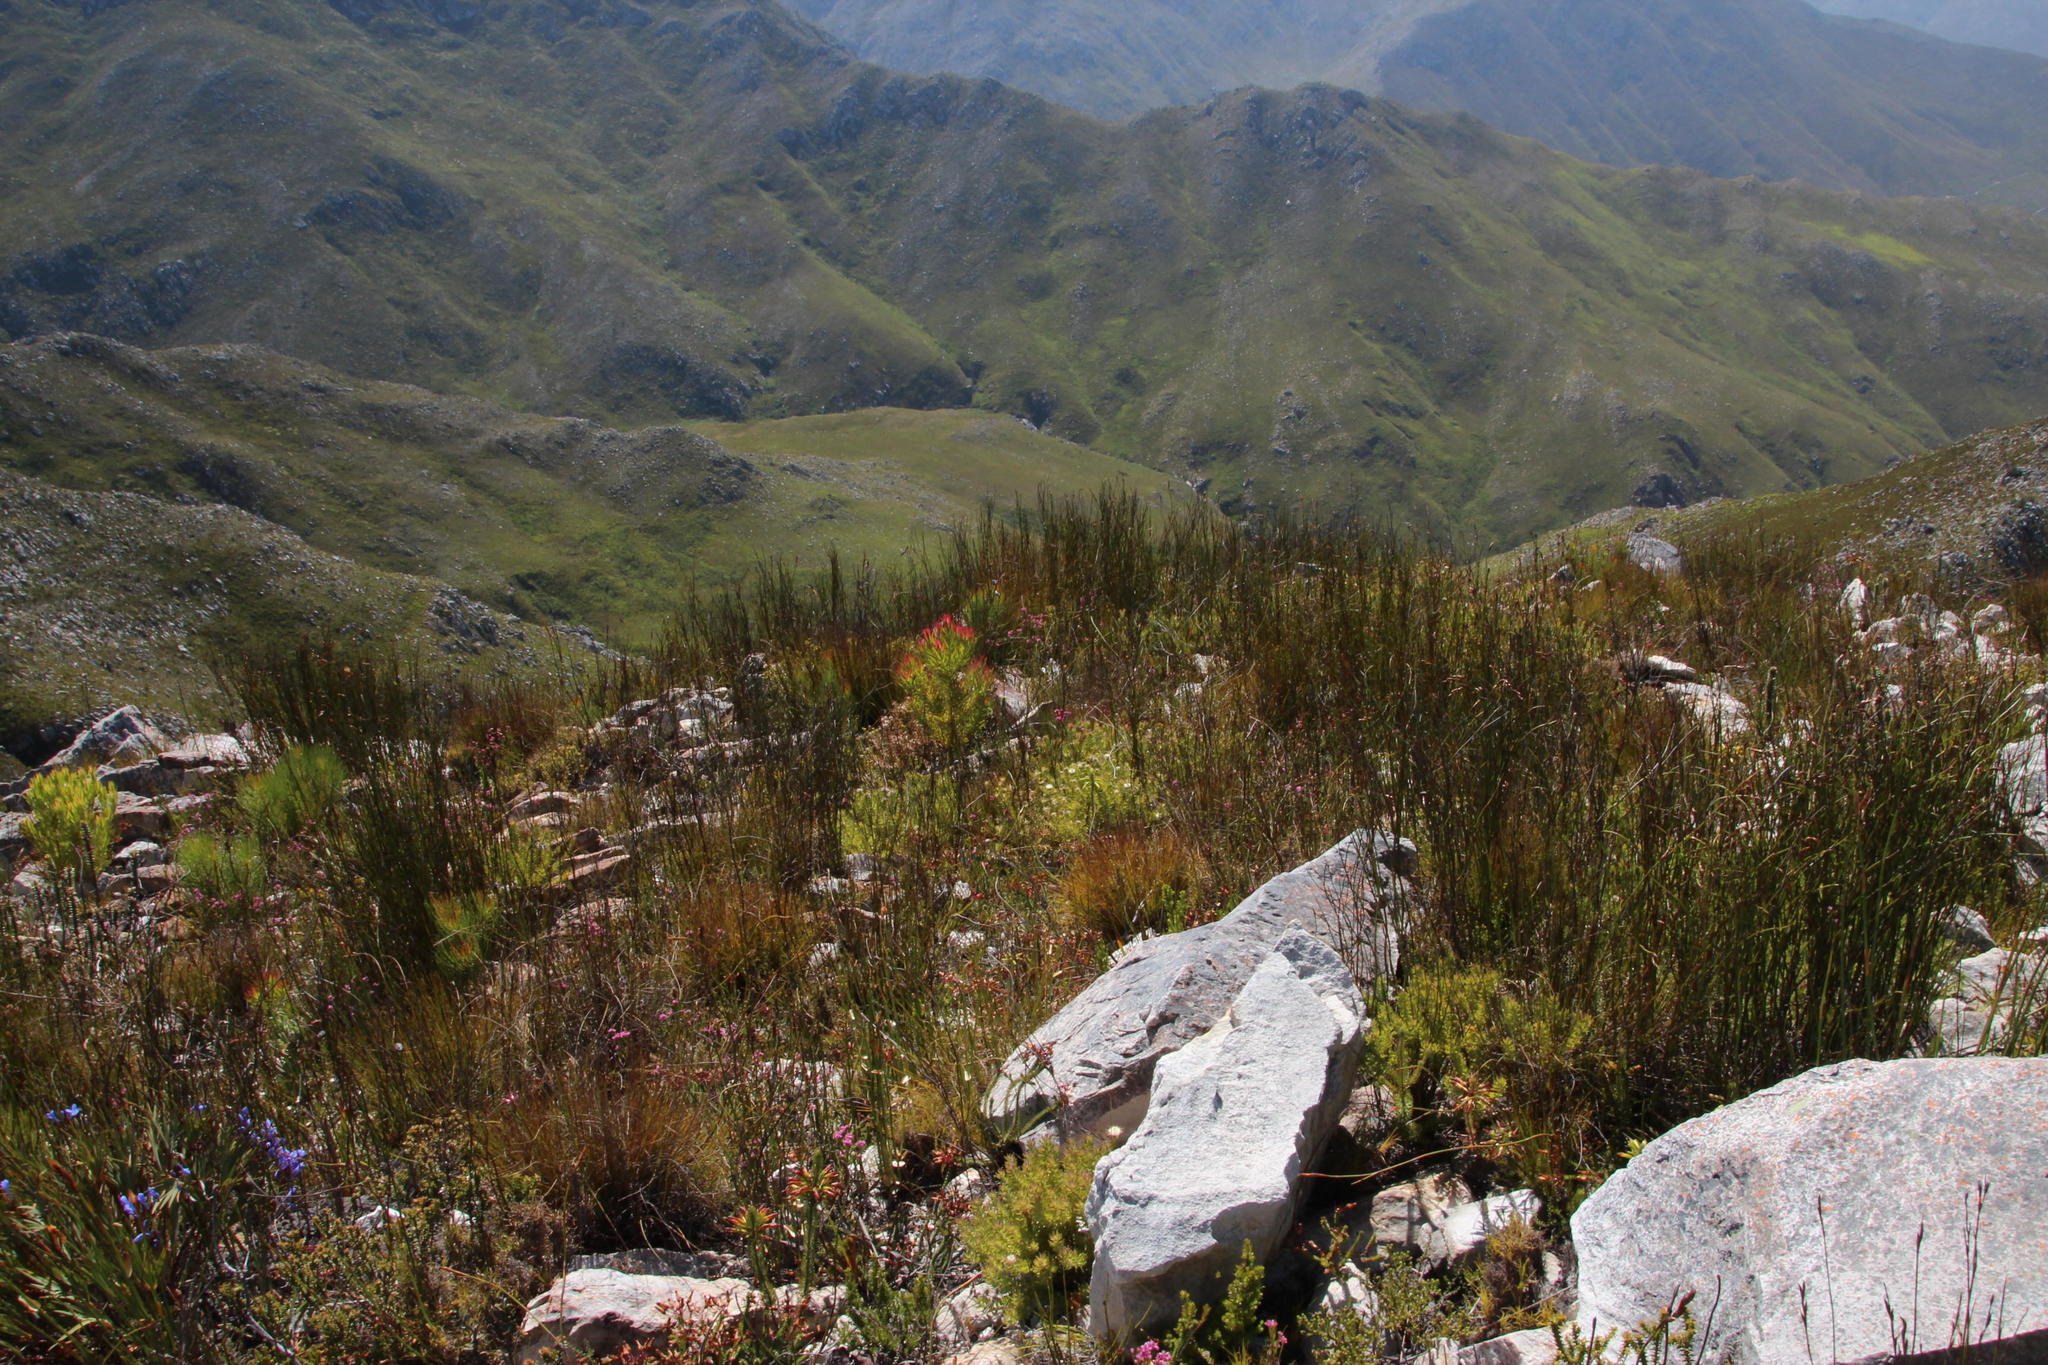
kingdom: Plantae
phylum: Tracheophyta
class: Magnoliopsida
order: Proteales
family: Proteaceae
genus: Diastella
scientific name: Diastella fraterna
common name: Palmiet silkypuff
